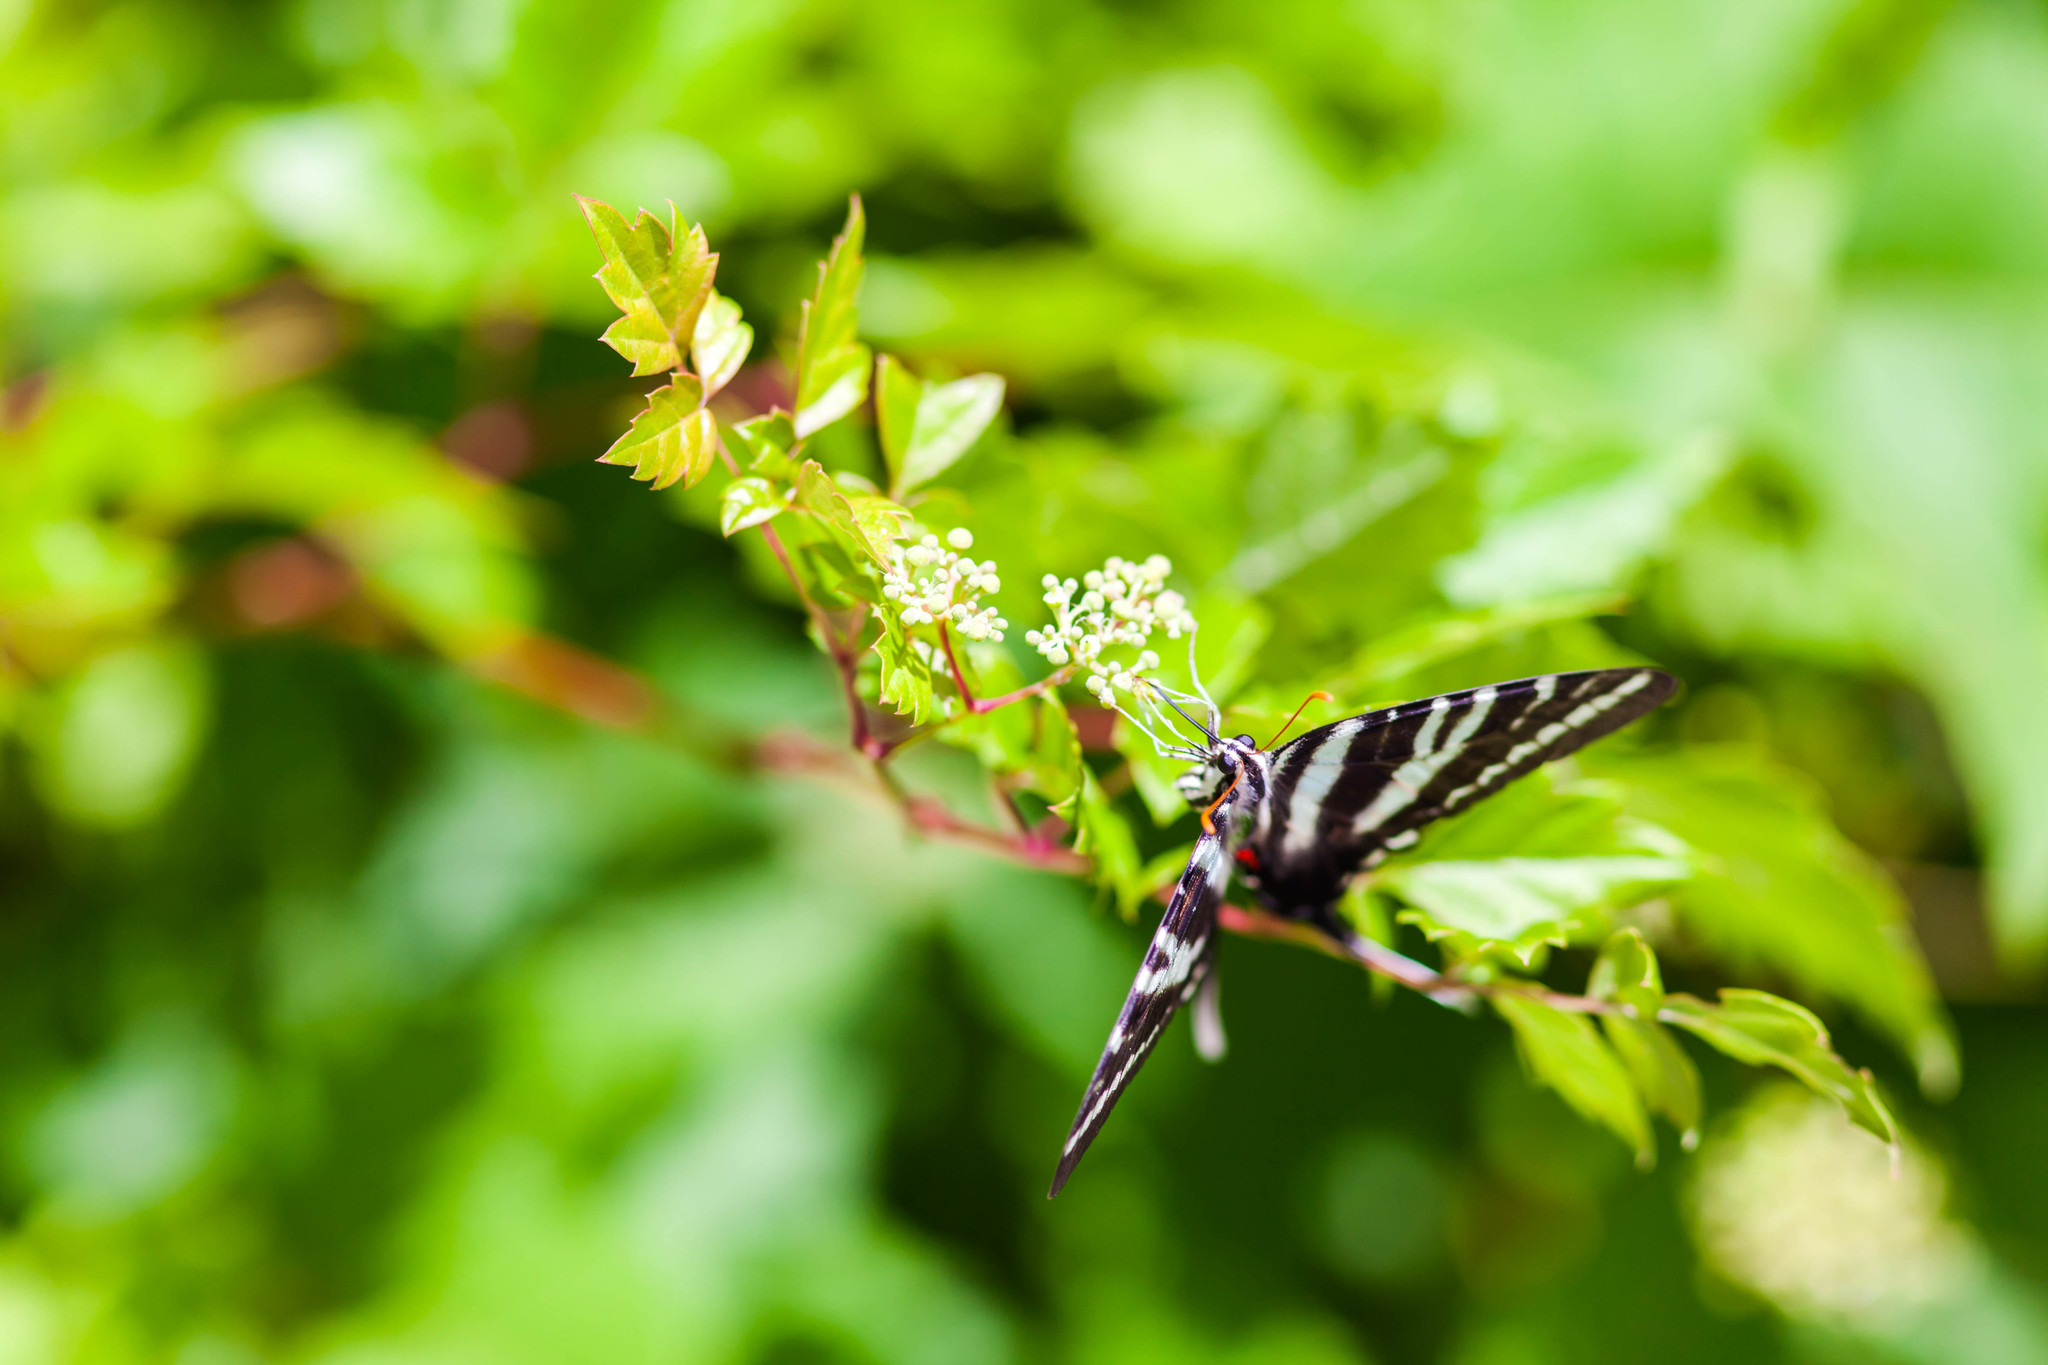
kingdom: Animalia
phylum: Arthropoda
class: Insecta
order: Lepidoptera
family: Papilionidae
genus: Protographium
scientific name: Protographium marcellus
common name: Zebra swallowtail
